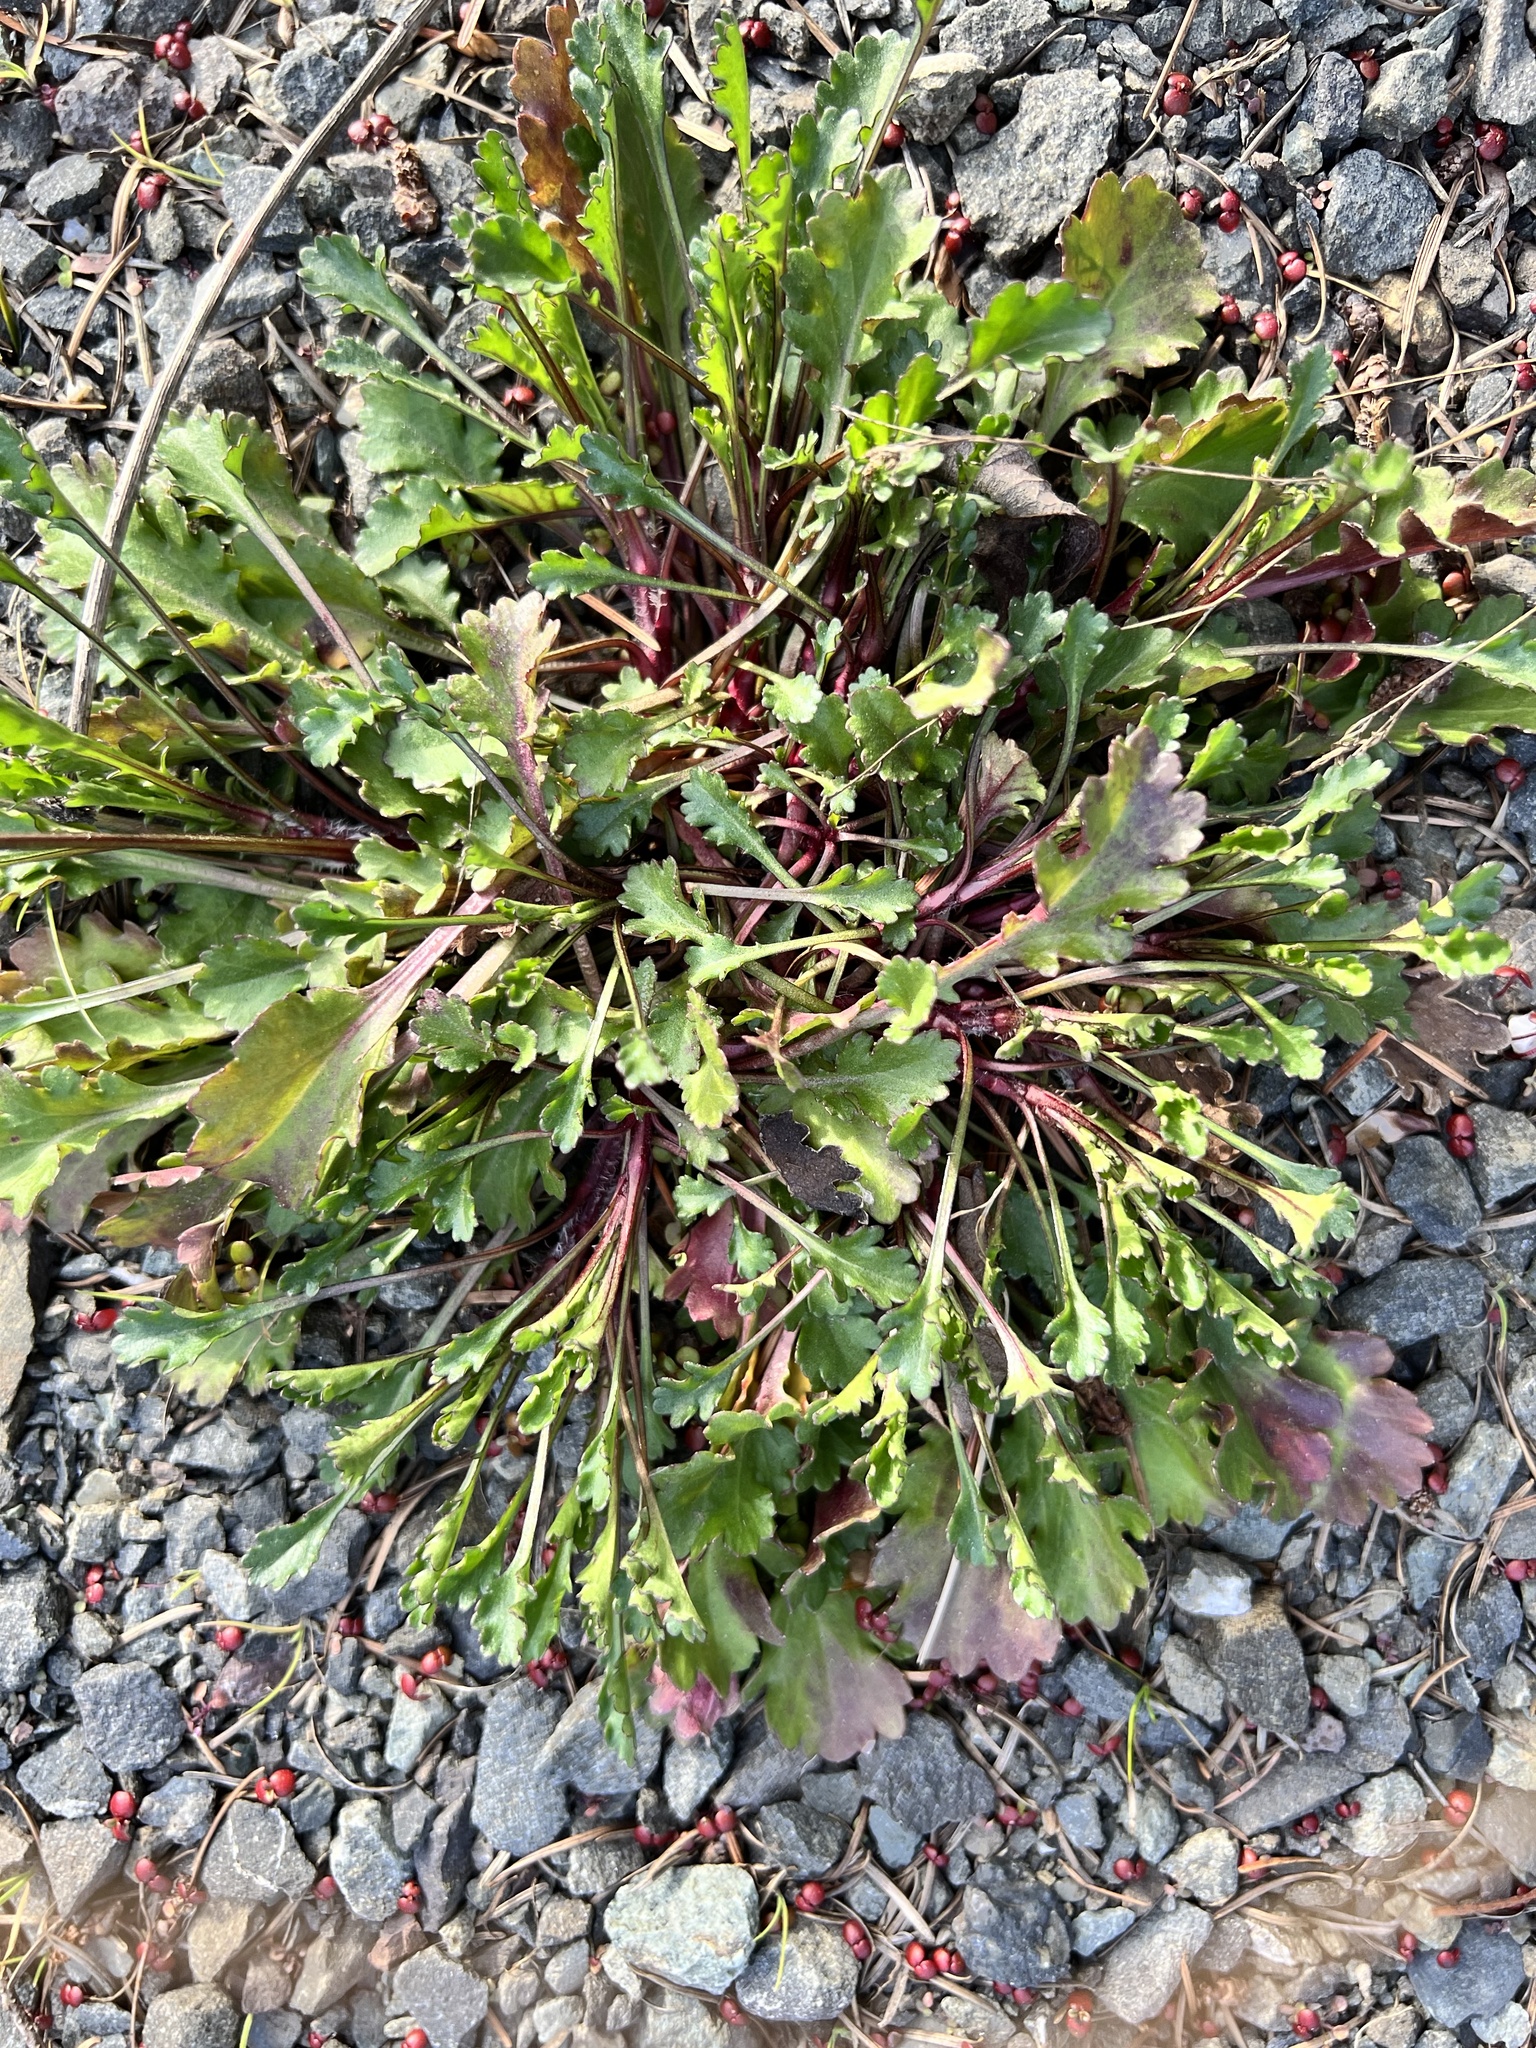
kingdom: Plantae
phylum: Tracheophyta
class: Magnoliopsida
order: Asterales
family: Asteraceae
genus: Leucanthemum
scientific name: Leucanthemum vulgare
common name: Oxeye daisy
